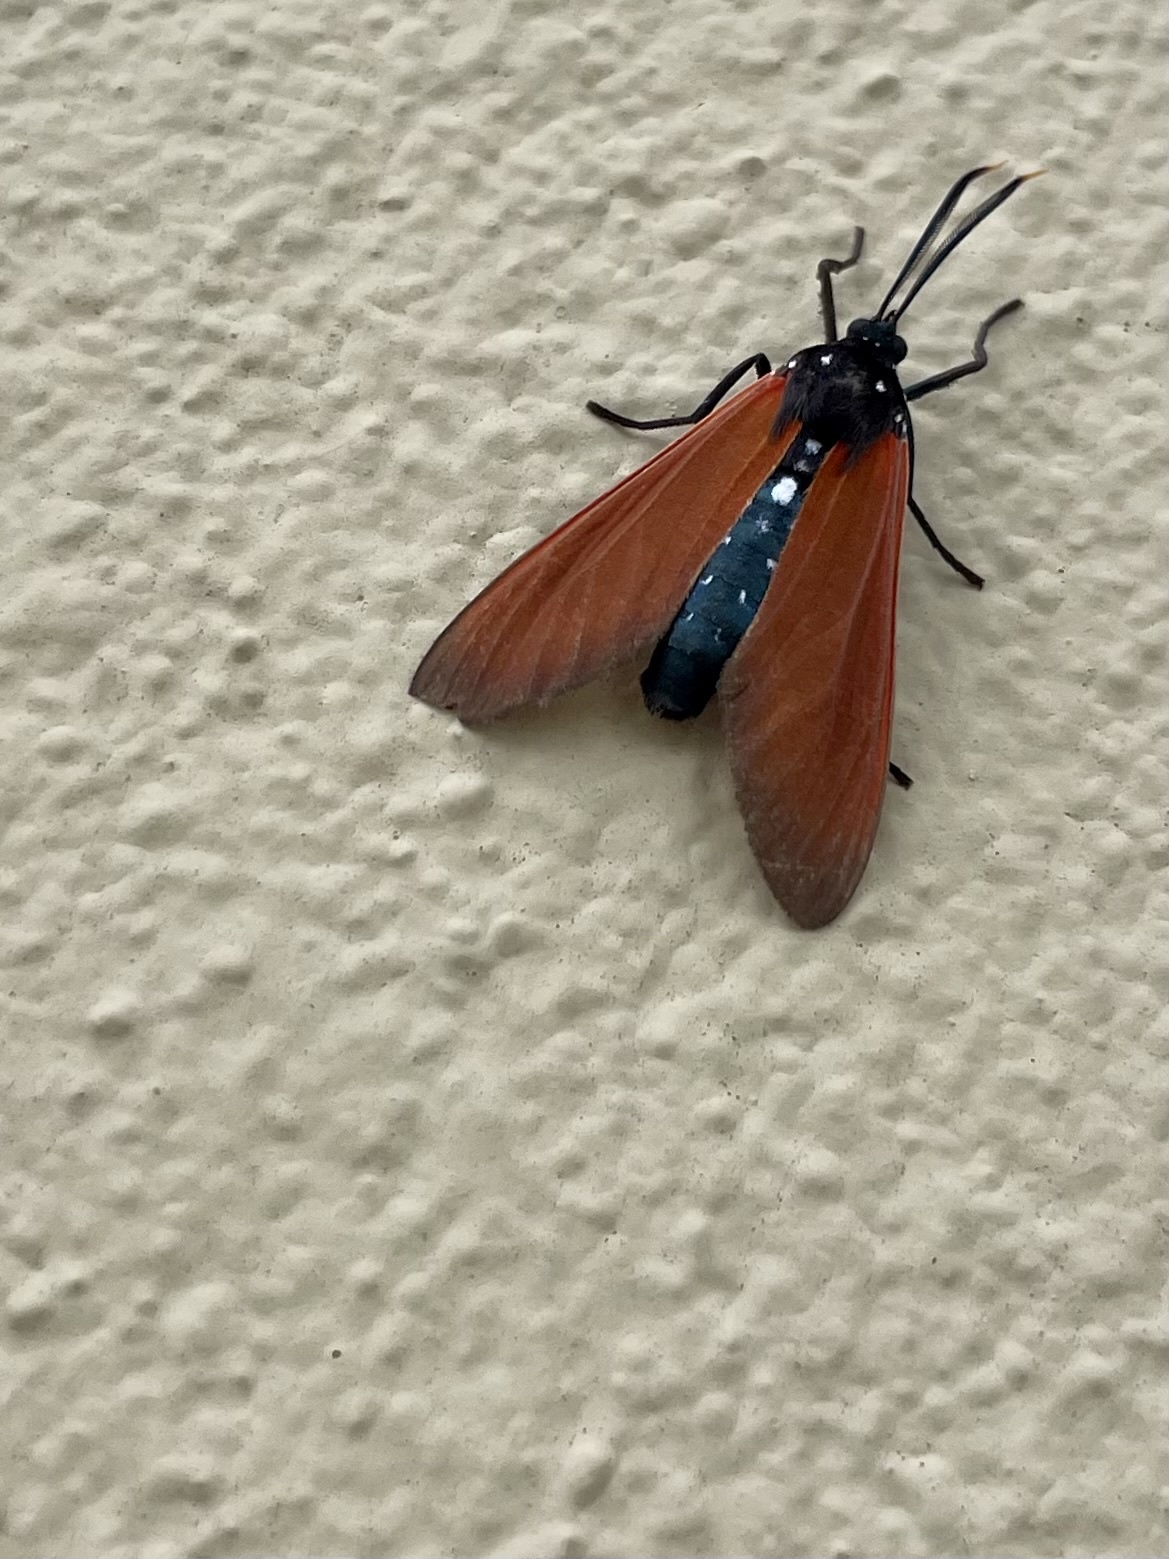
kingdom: Animalia
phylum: Arthropoda
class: Insecta
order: Lepidoptera
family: Erebidae
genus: Empyreuma
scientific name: Empyreuma pugione
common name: Spotted oleander caterpillar moth
